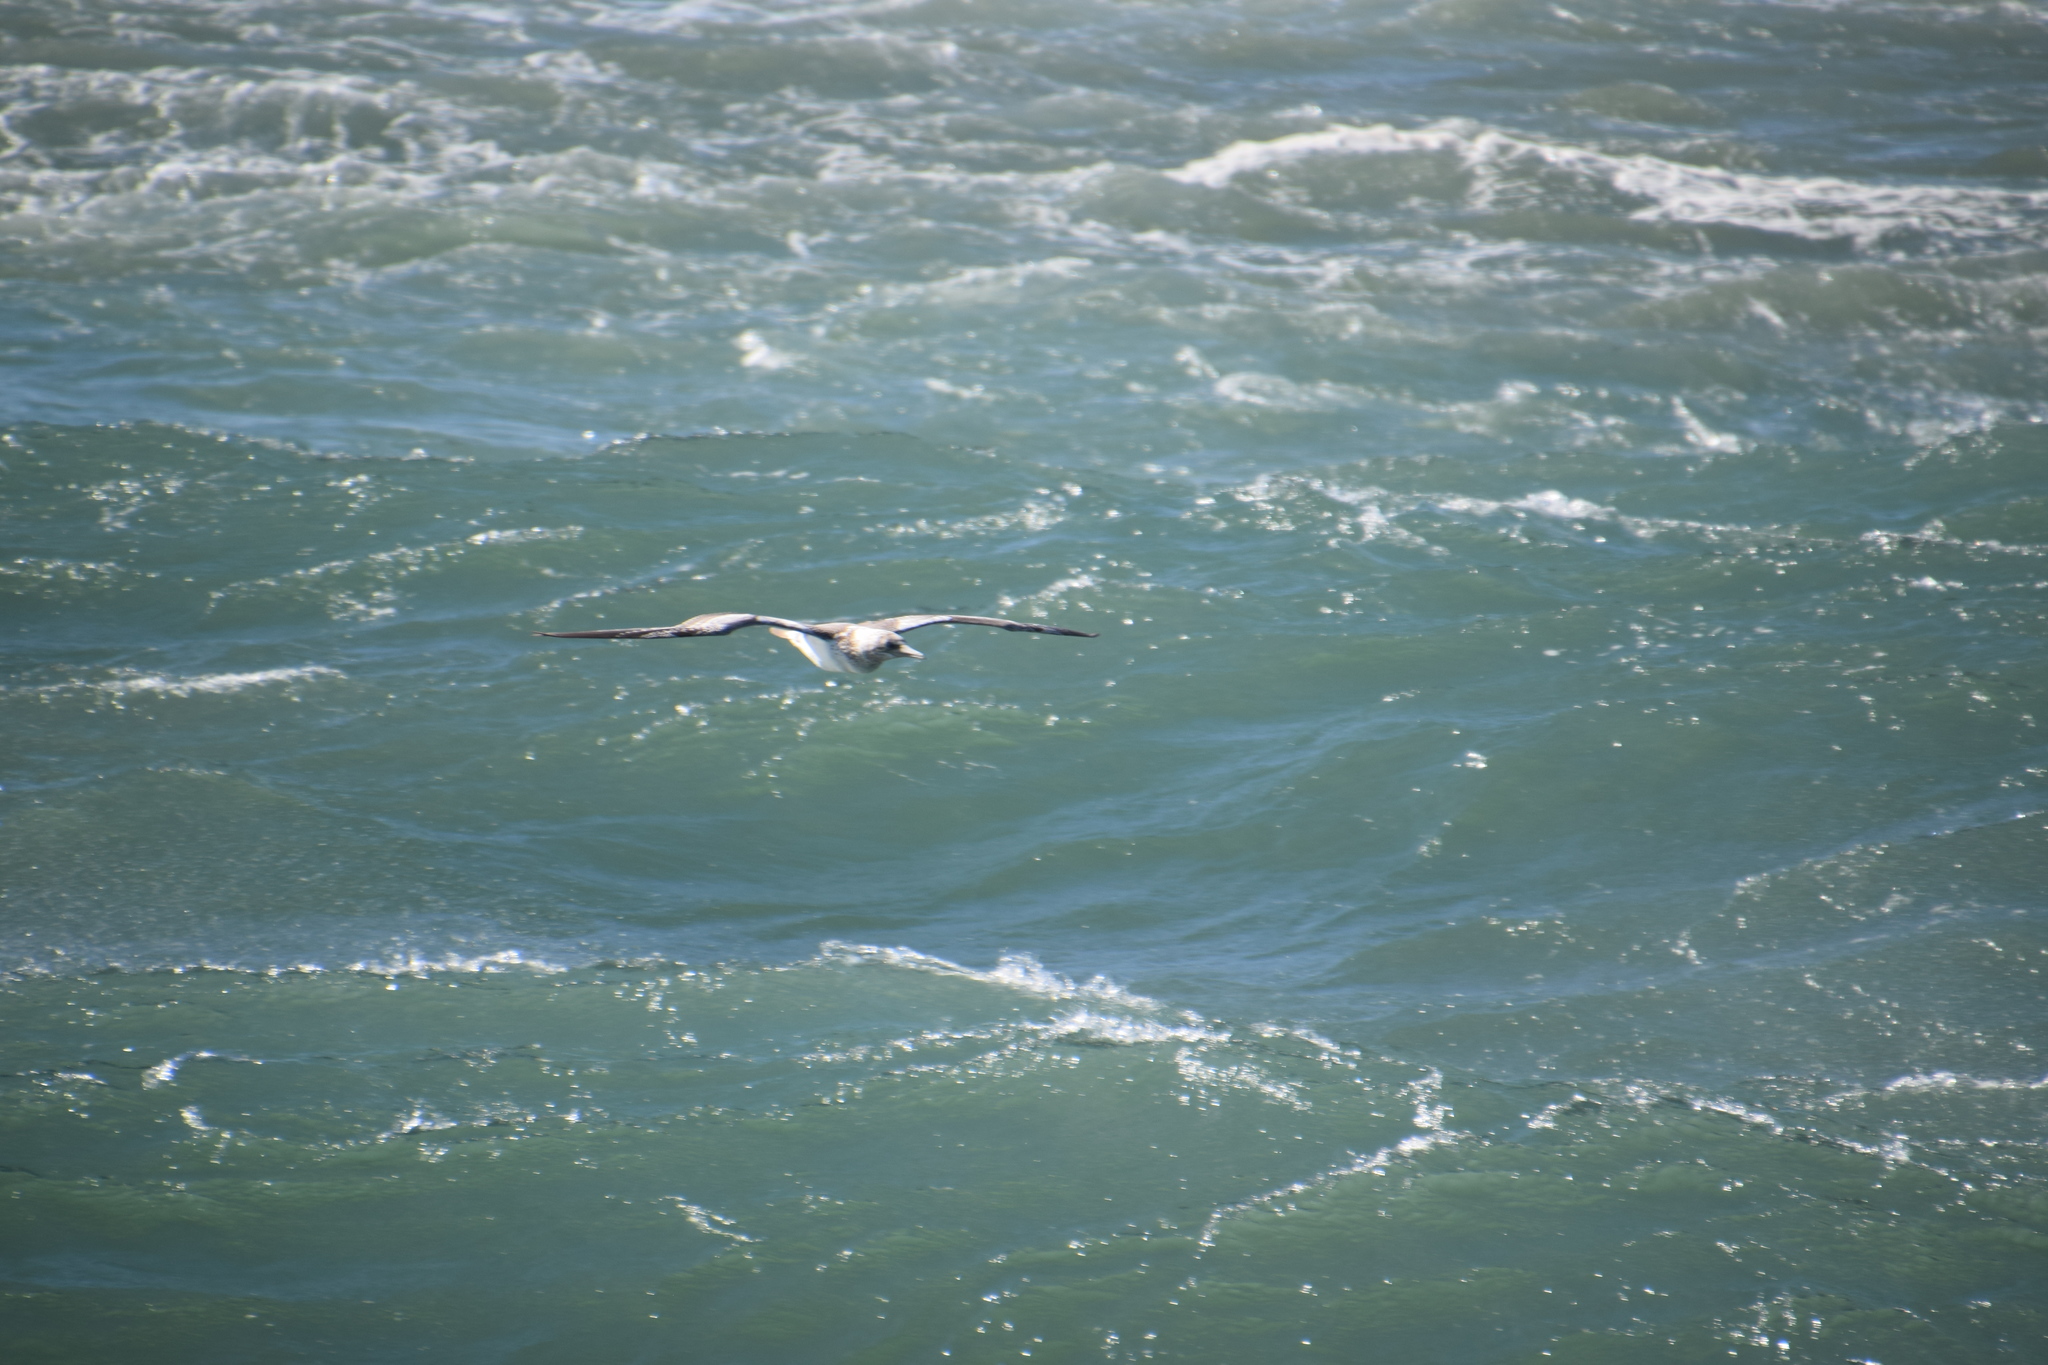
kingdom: Animalia
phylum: Chordata
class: Aves
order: Suliformes
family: Sulidae
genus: Morus
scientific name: Morus serrator
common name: Australasian gannet
